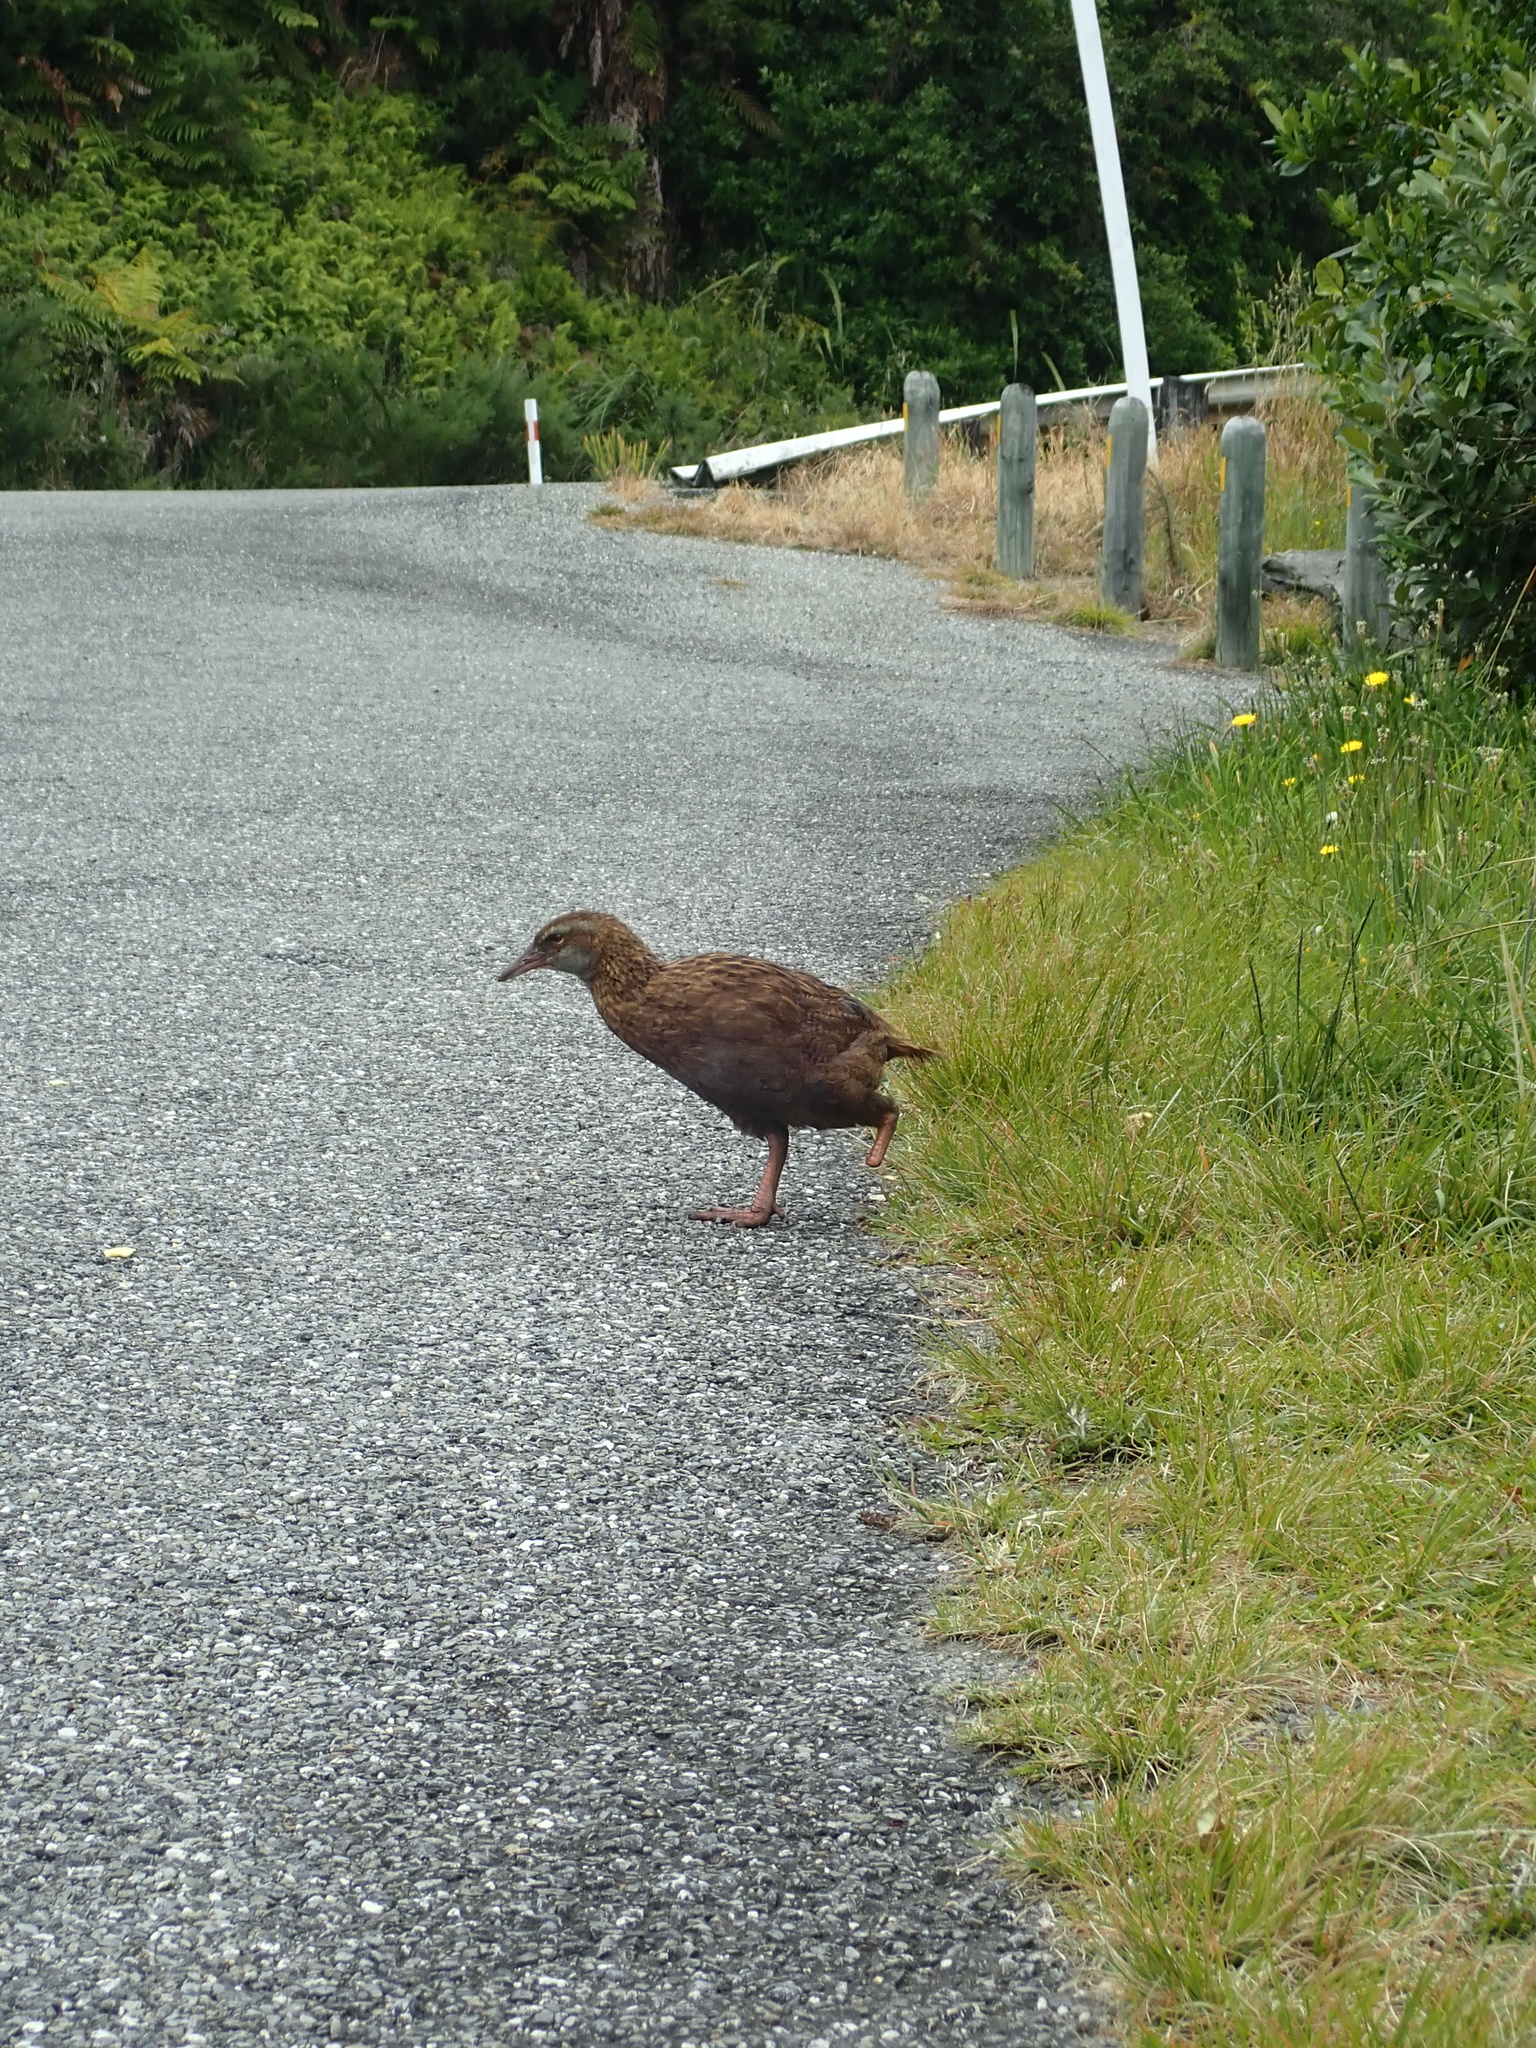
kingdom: Animalia
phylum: Chordata
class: Aves
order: Gruiformes
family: Rallidae
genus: Gallirallus
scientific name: Gallirallus australis
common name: Weka
